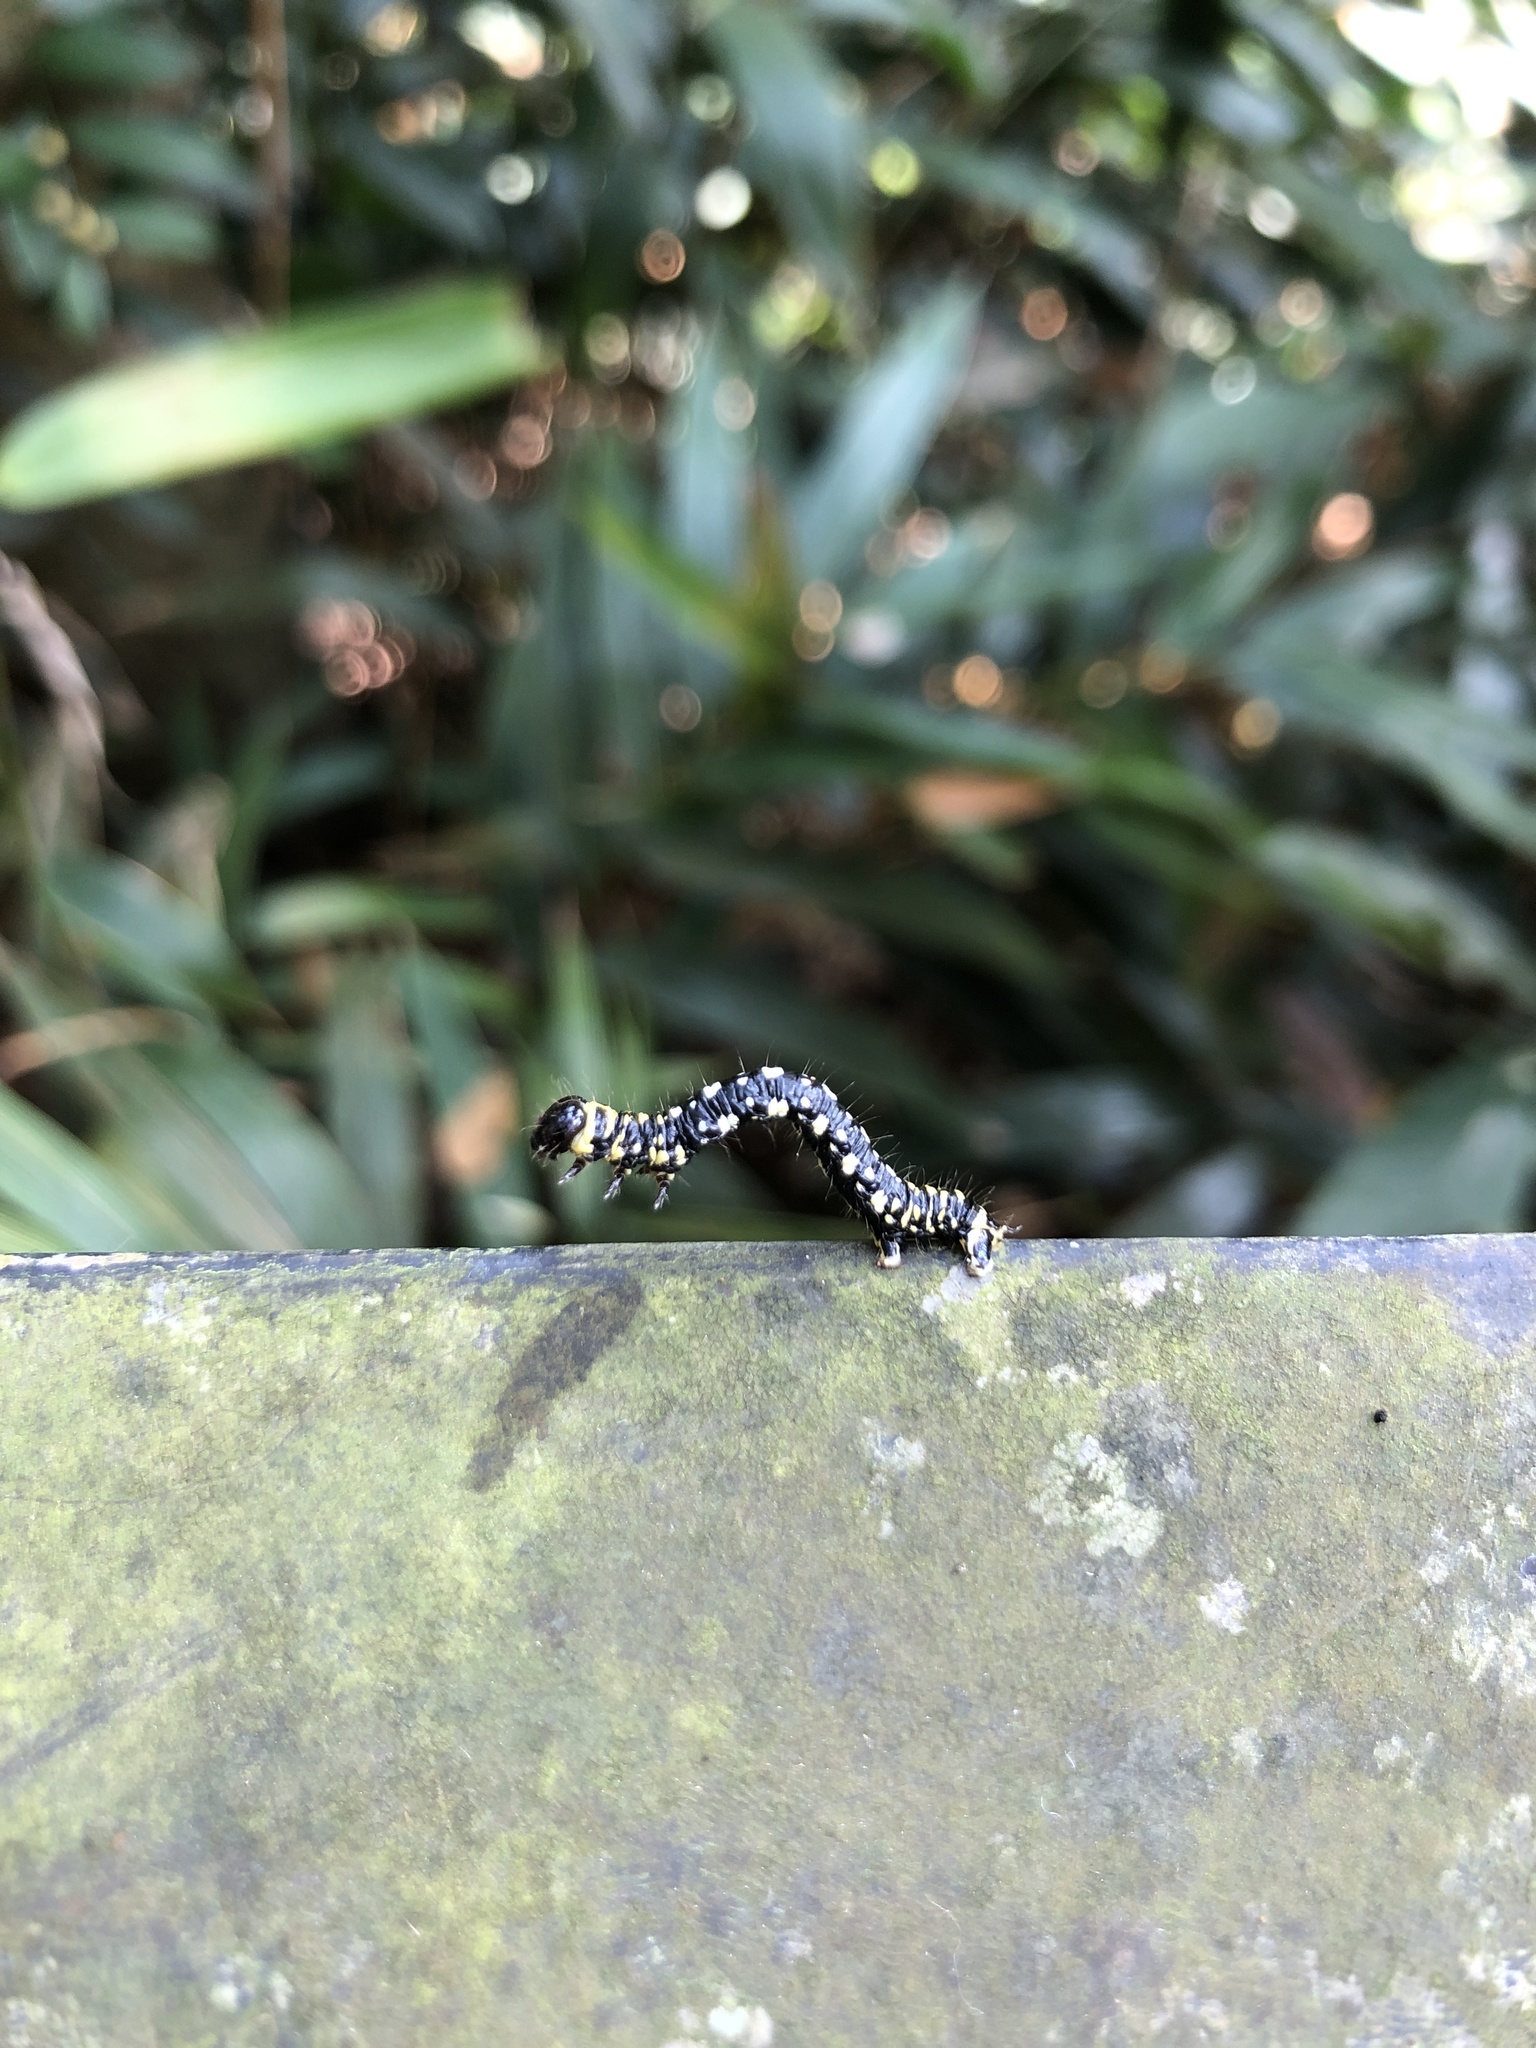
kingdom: Animalia
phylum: Arthropoda
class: Insecta
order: Lepidoptera
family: Geometridae
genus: Abraxas
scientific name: Abraxas illuminata
